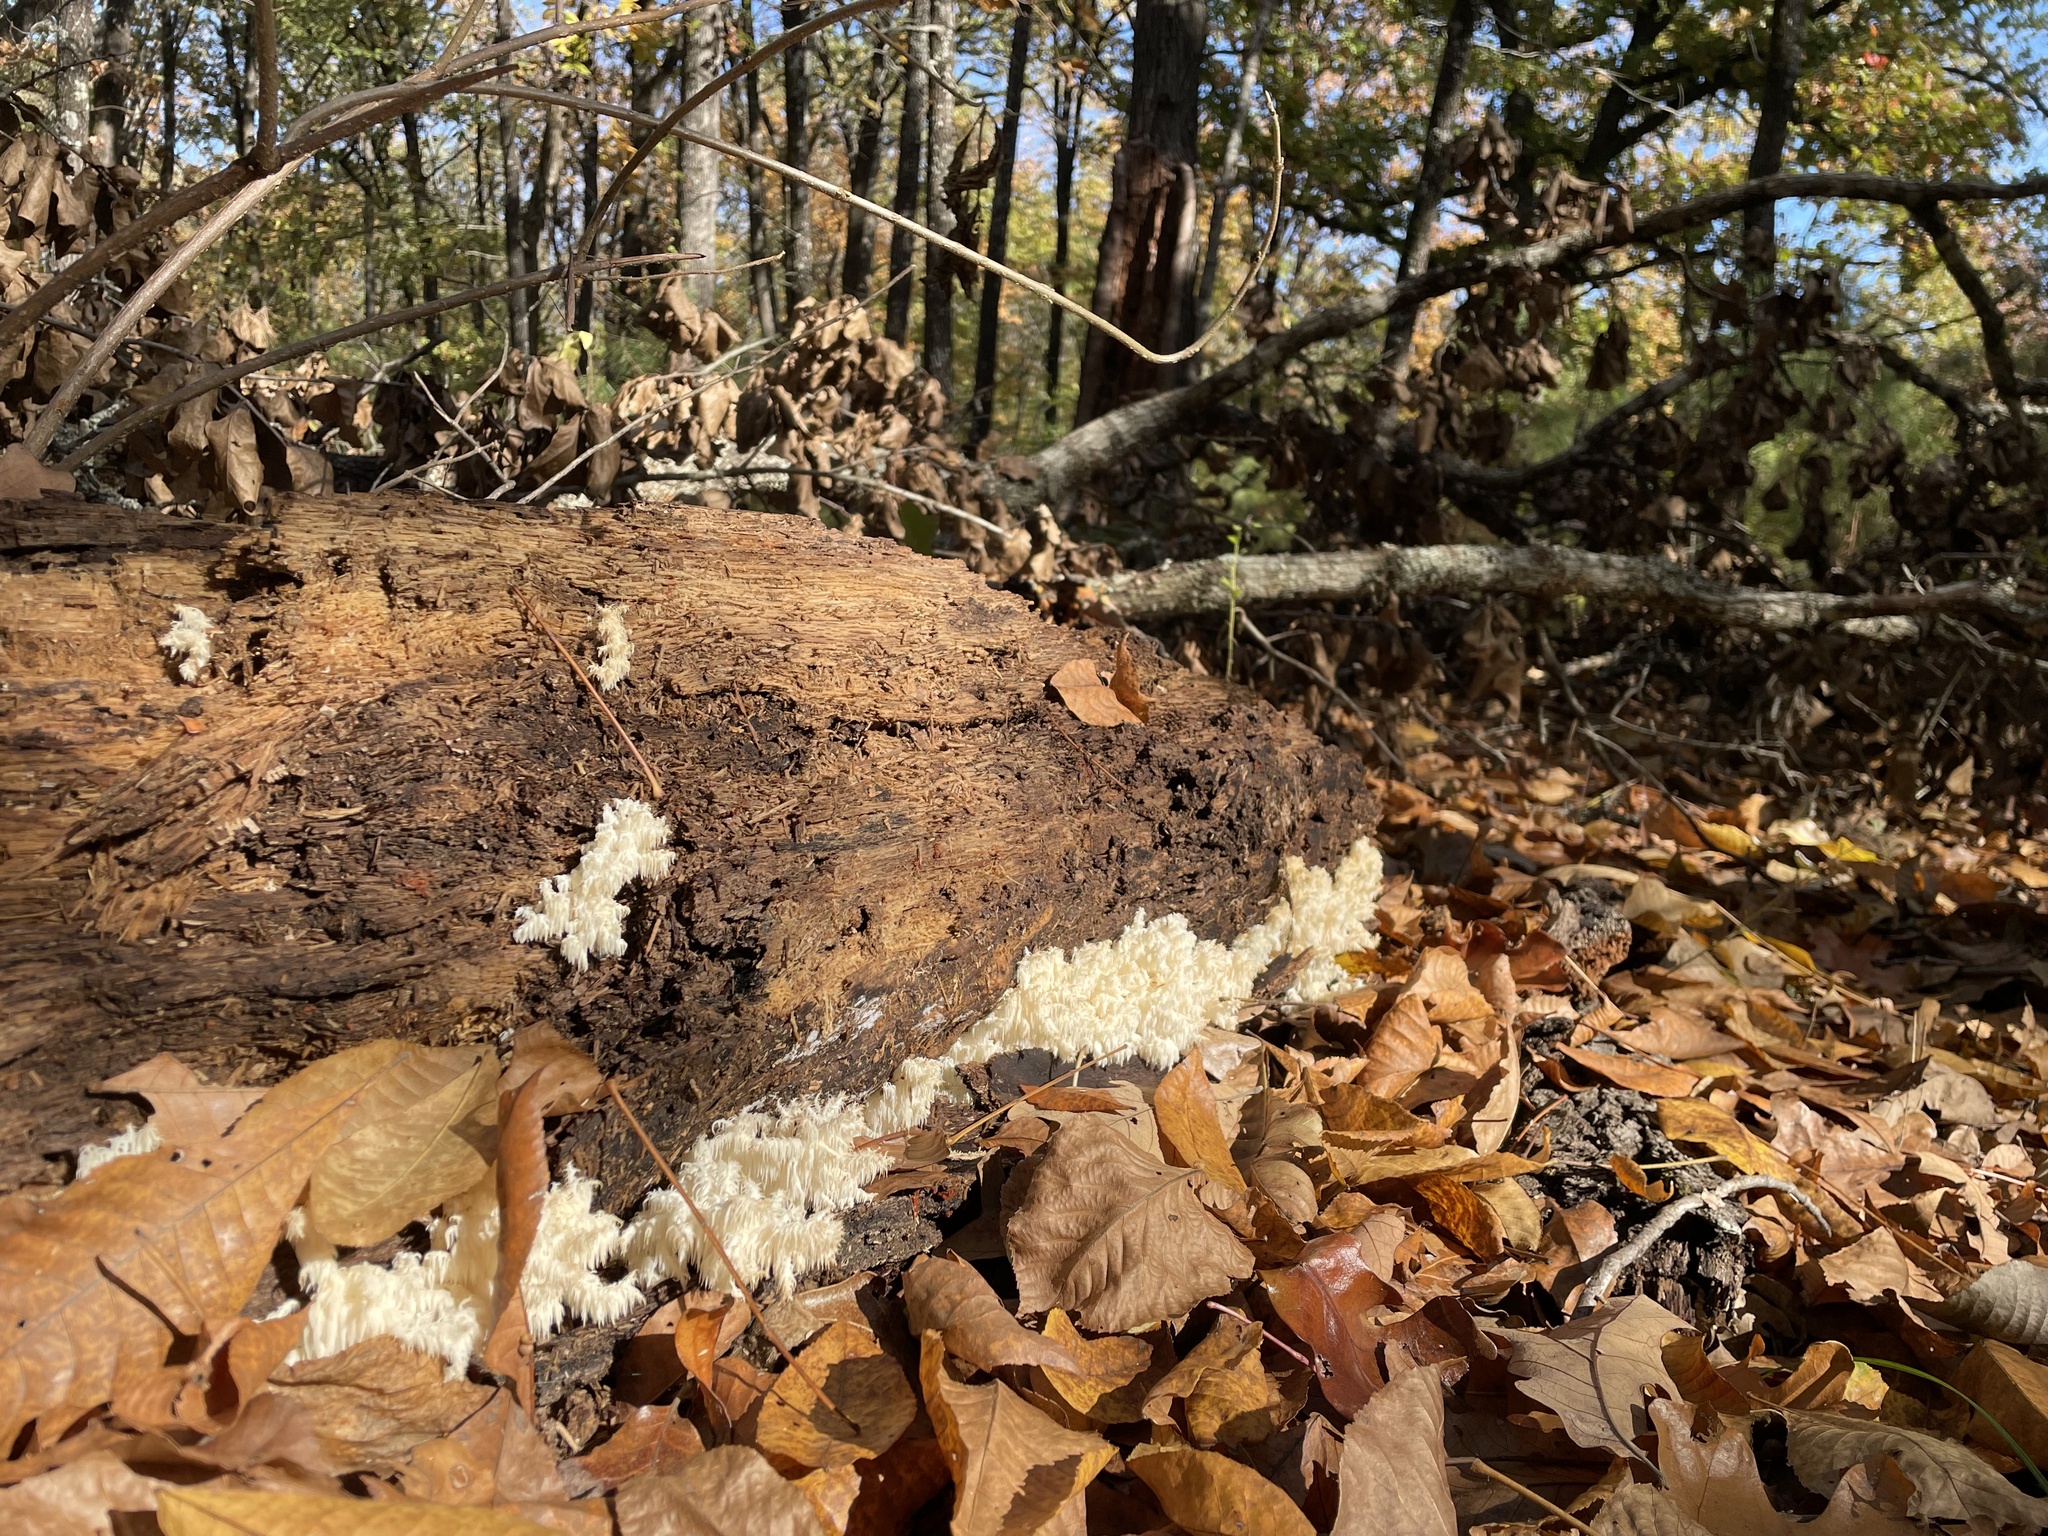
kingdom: Fungi
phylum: Basidiomycota
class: Agaricomycetes
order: Russulales
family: Hericiaceae
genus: Hericium
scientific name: Hericium coralloides
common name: Coral tooth
